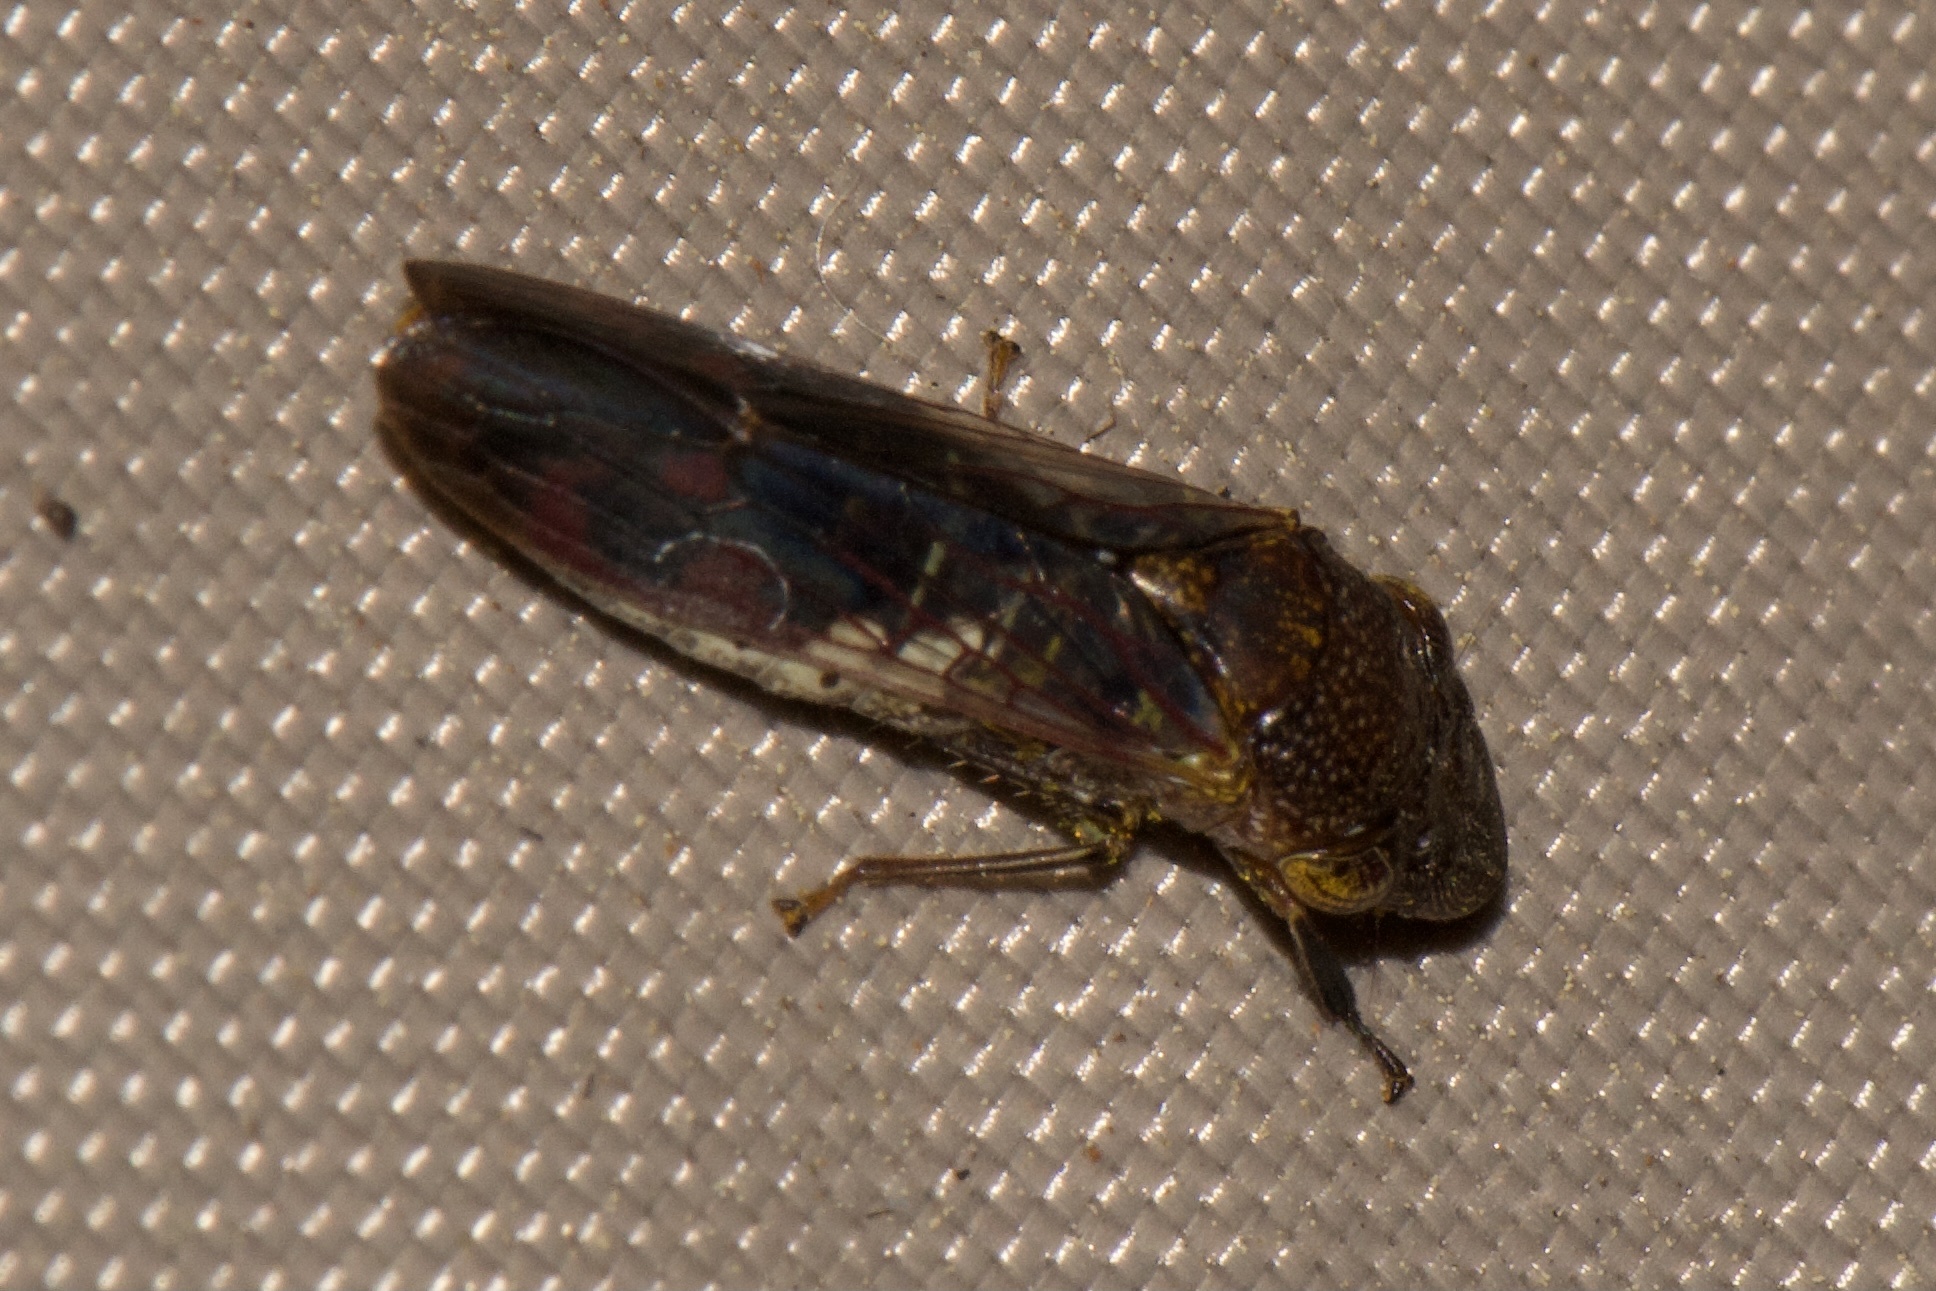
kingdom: Animalia
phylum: Arthropoda
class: Insecta
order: Hemiptera
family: Cicadellidae
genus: Homalodisca
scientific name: Homalodisca vitripennis
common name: Glassy-winged sharpshooter
